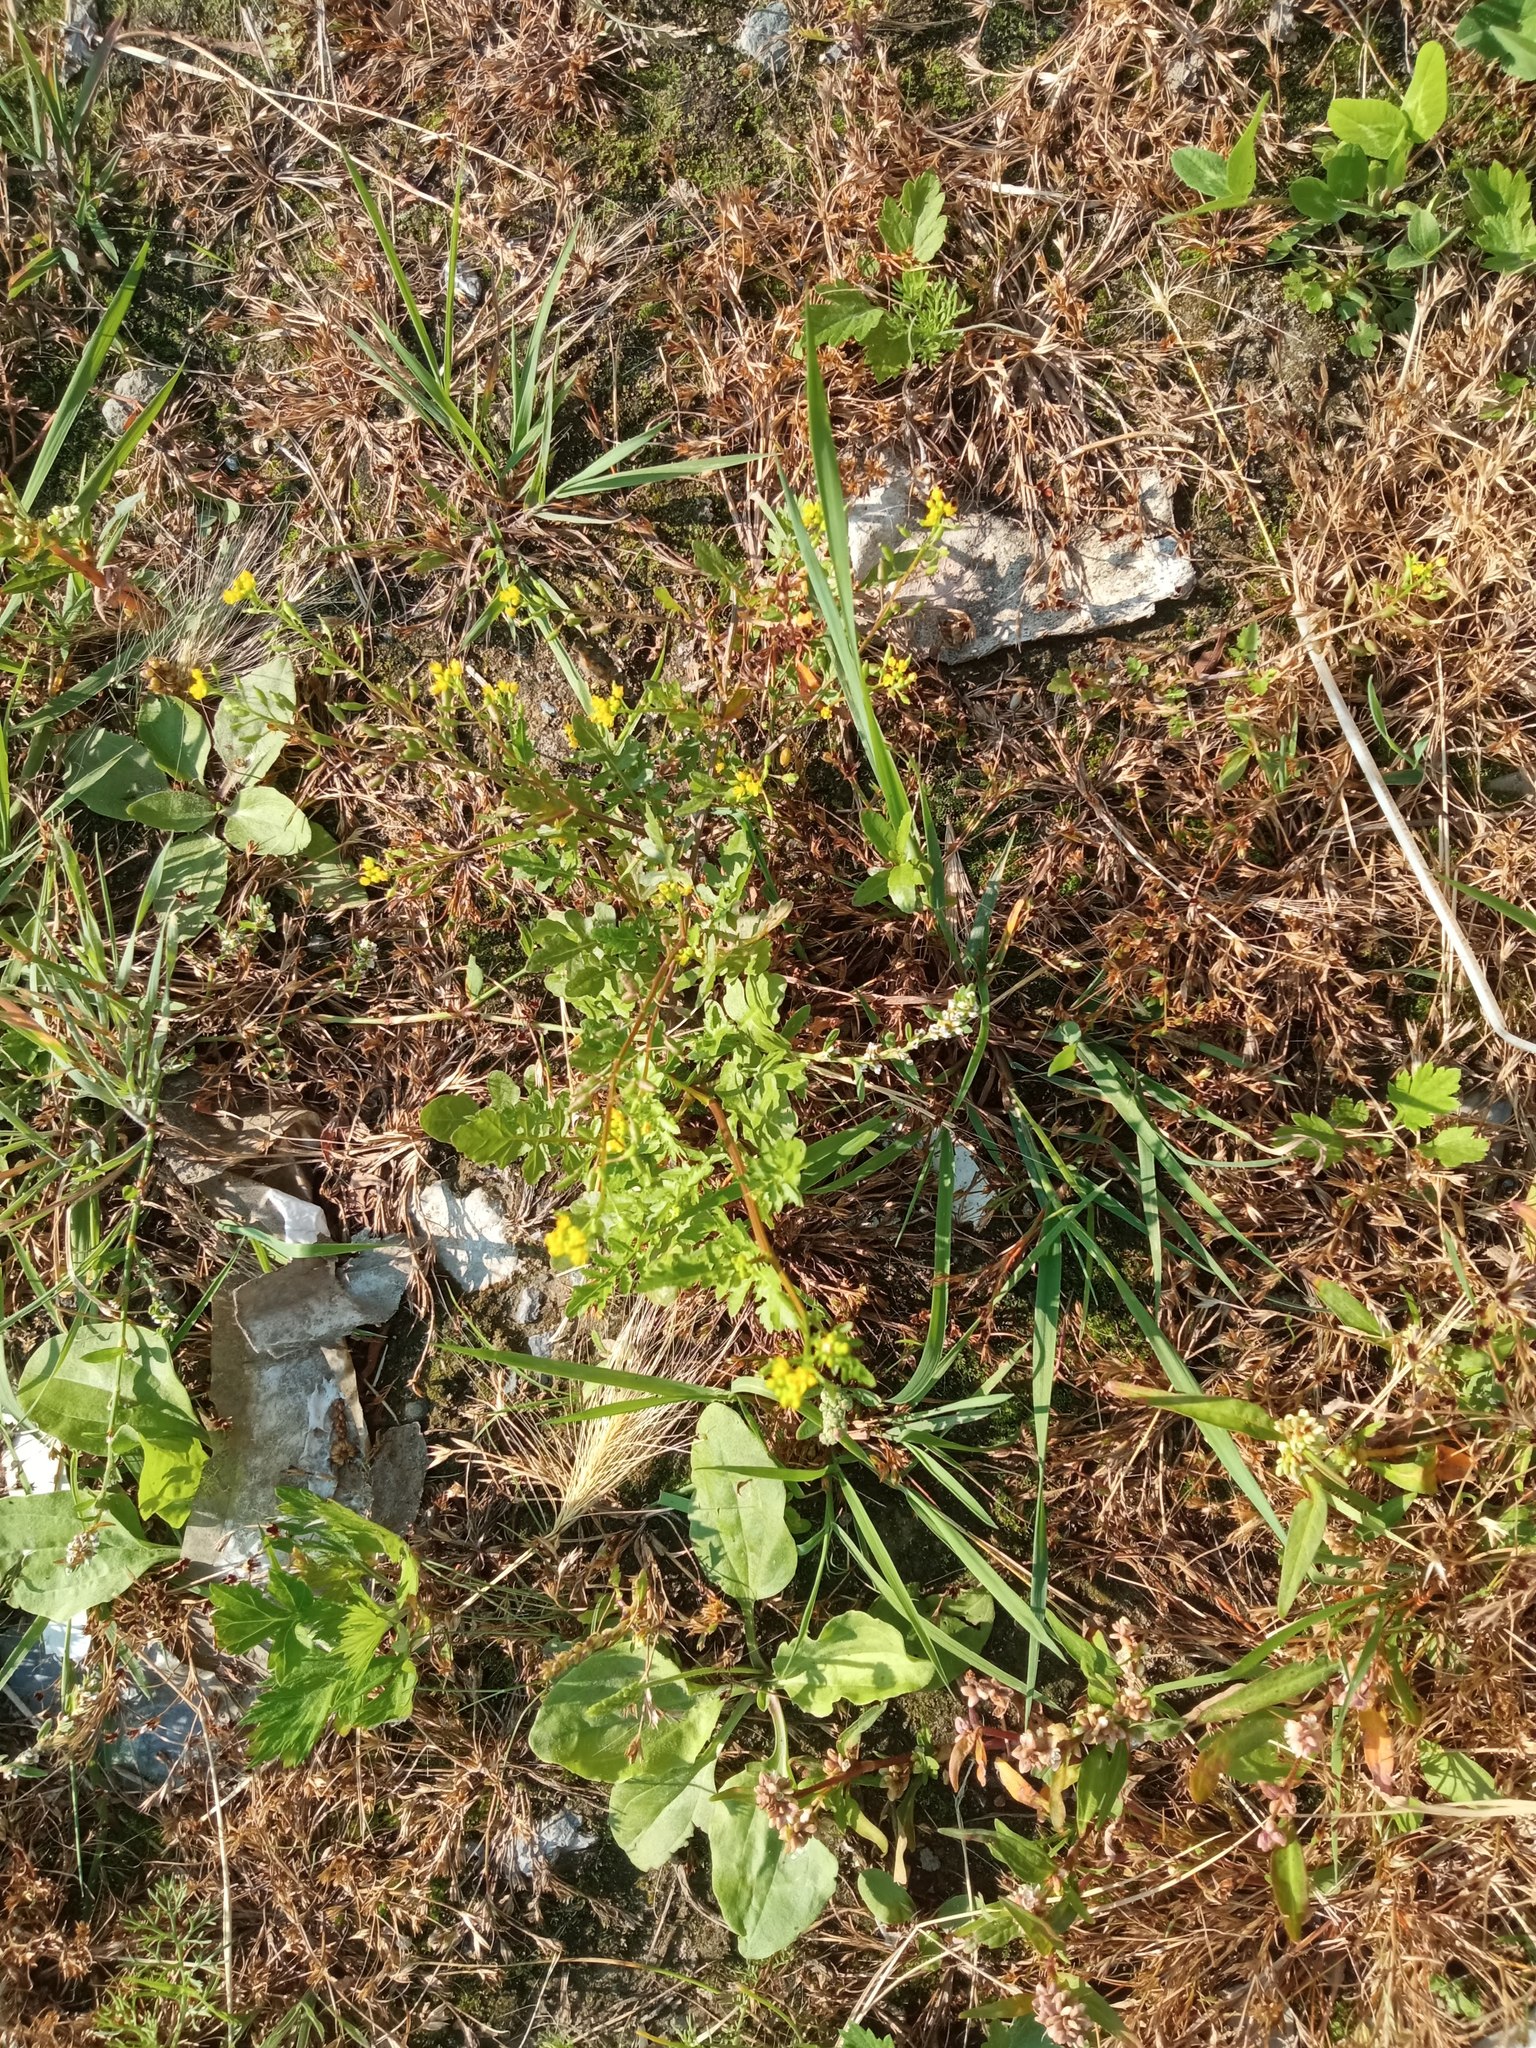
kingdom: Plantae
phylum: Tracheophyta
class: Magnoliopsida
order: Brassicales
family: Brassicaceae
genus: Rorippa
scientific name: Rorippa palustris
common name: Marsh yellow-cress
